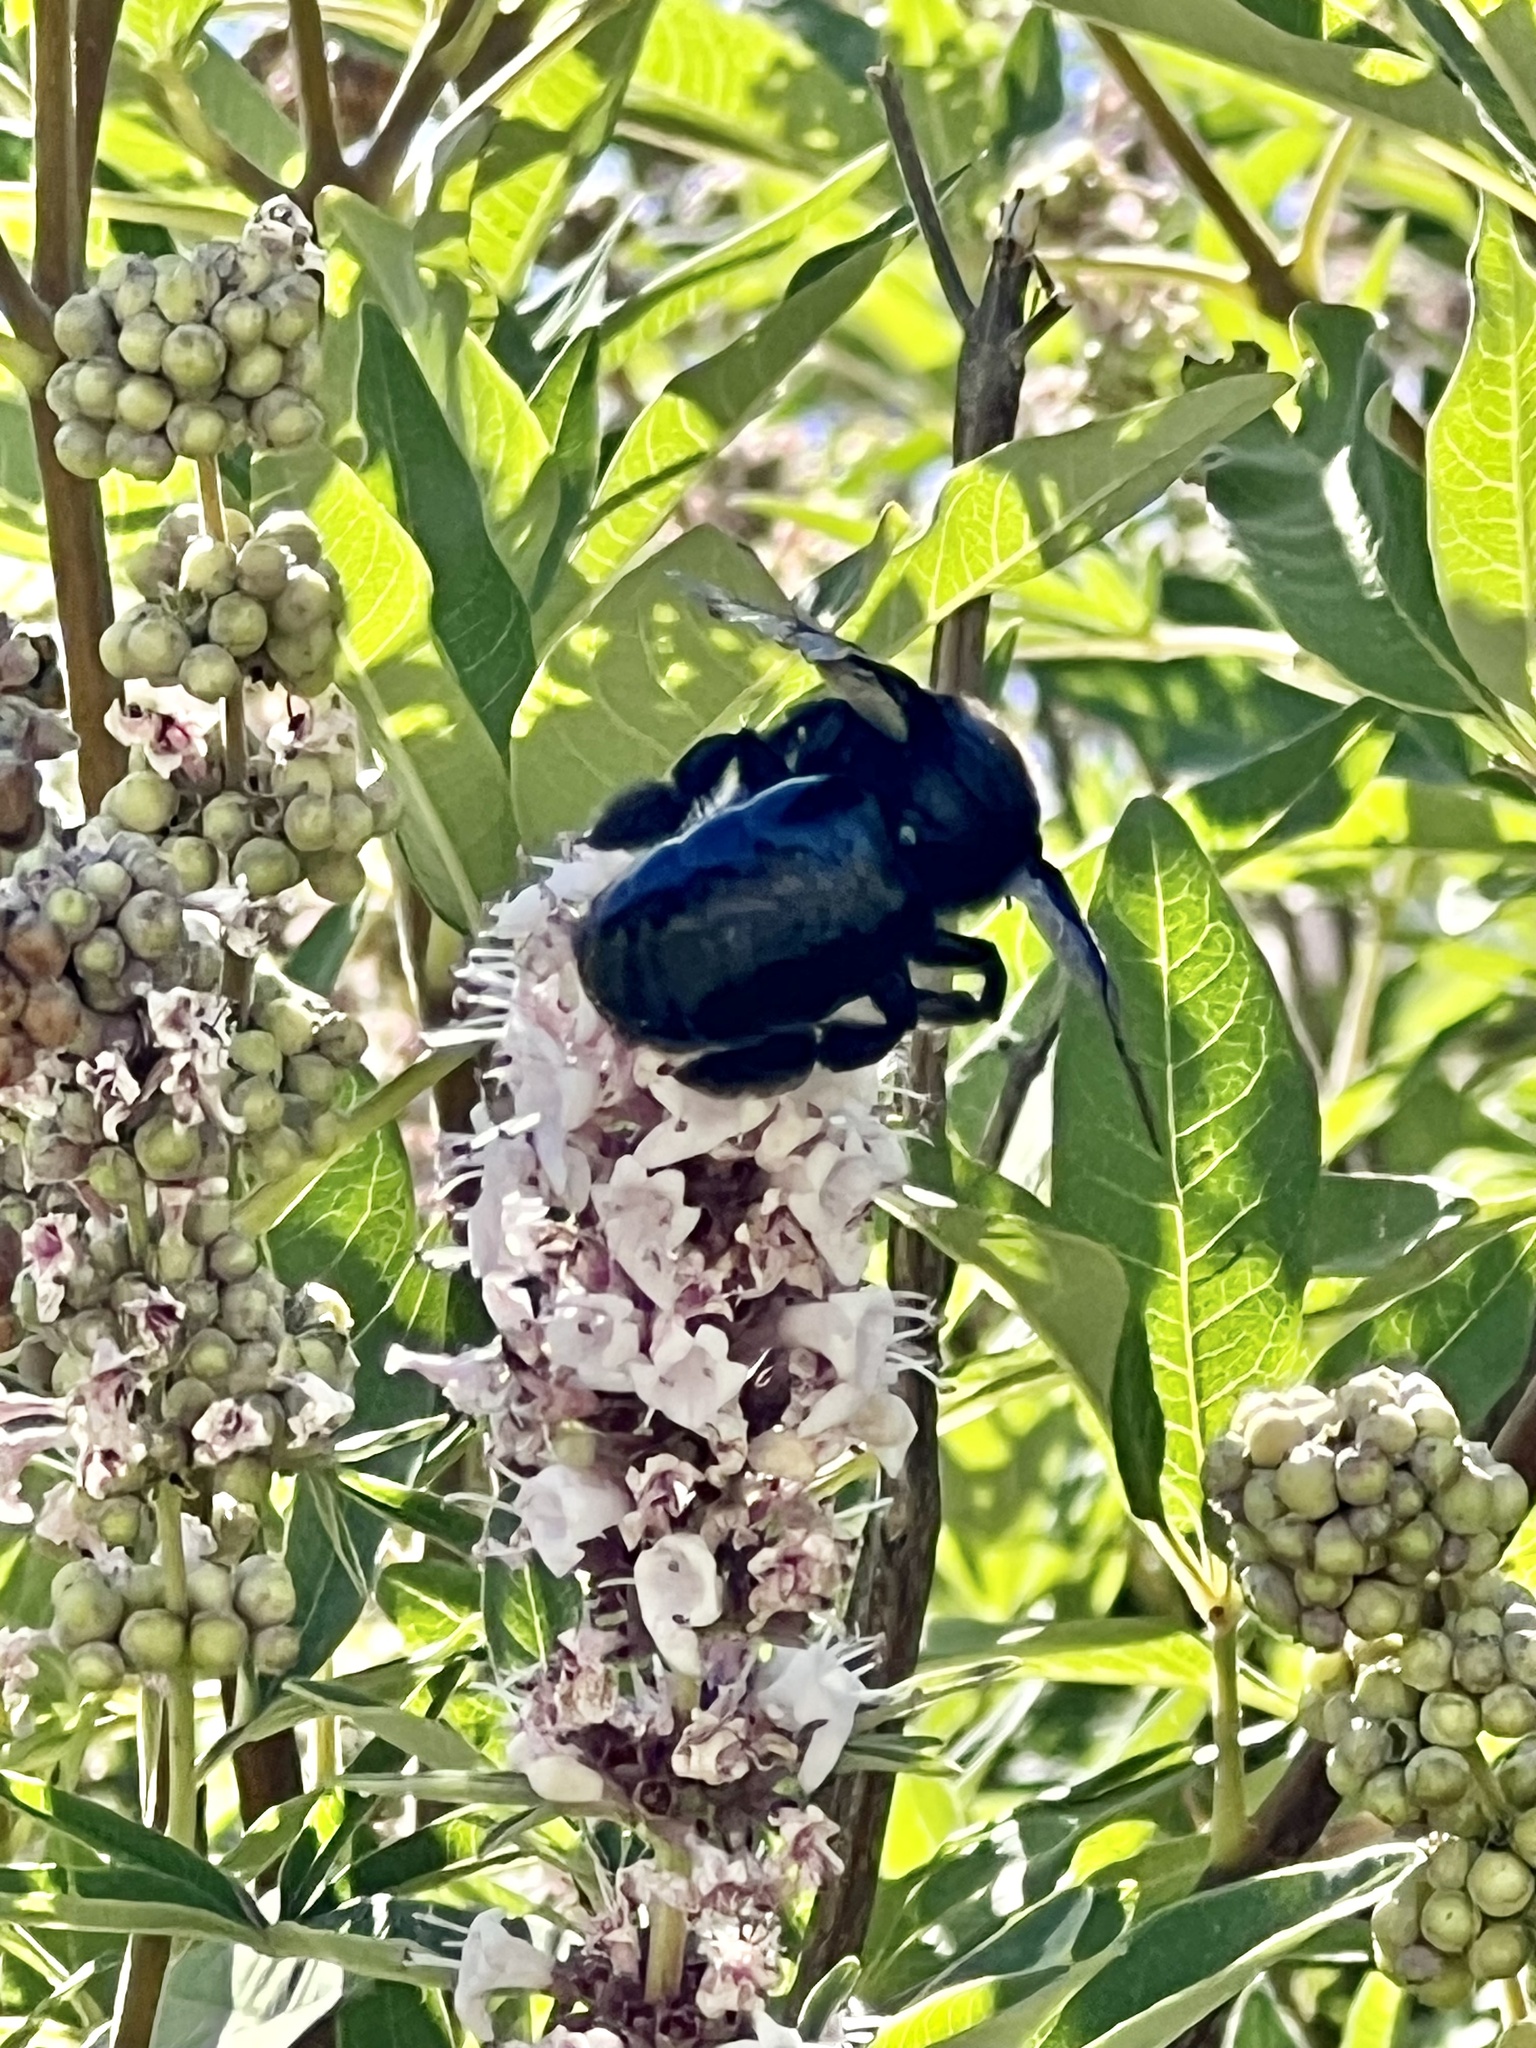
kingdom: Animalia
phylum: Arthropoda
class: Insecta
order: Hymenoptera
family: Apidae
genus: Xylocopa
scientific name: Xylocopa californica
